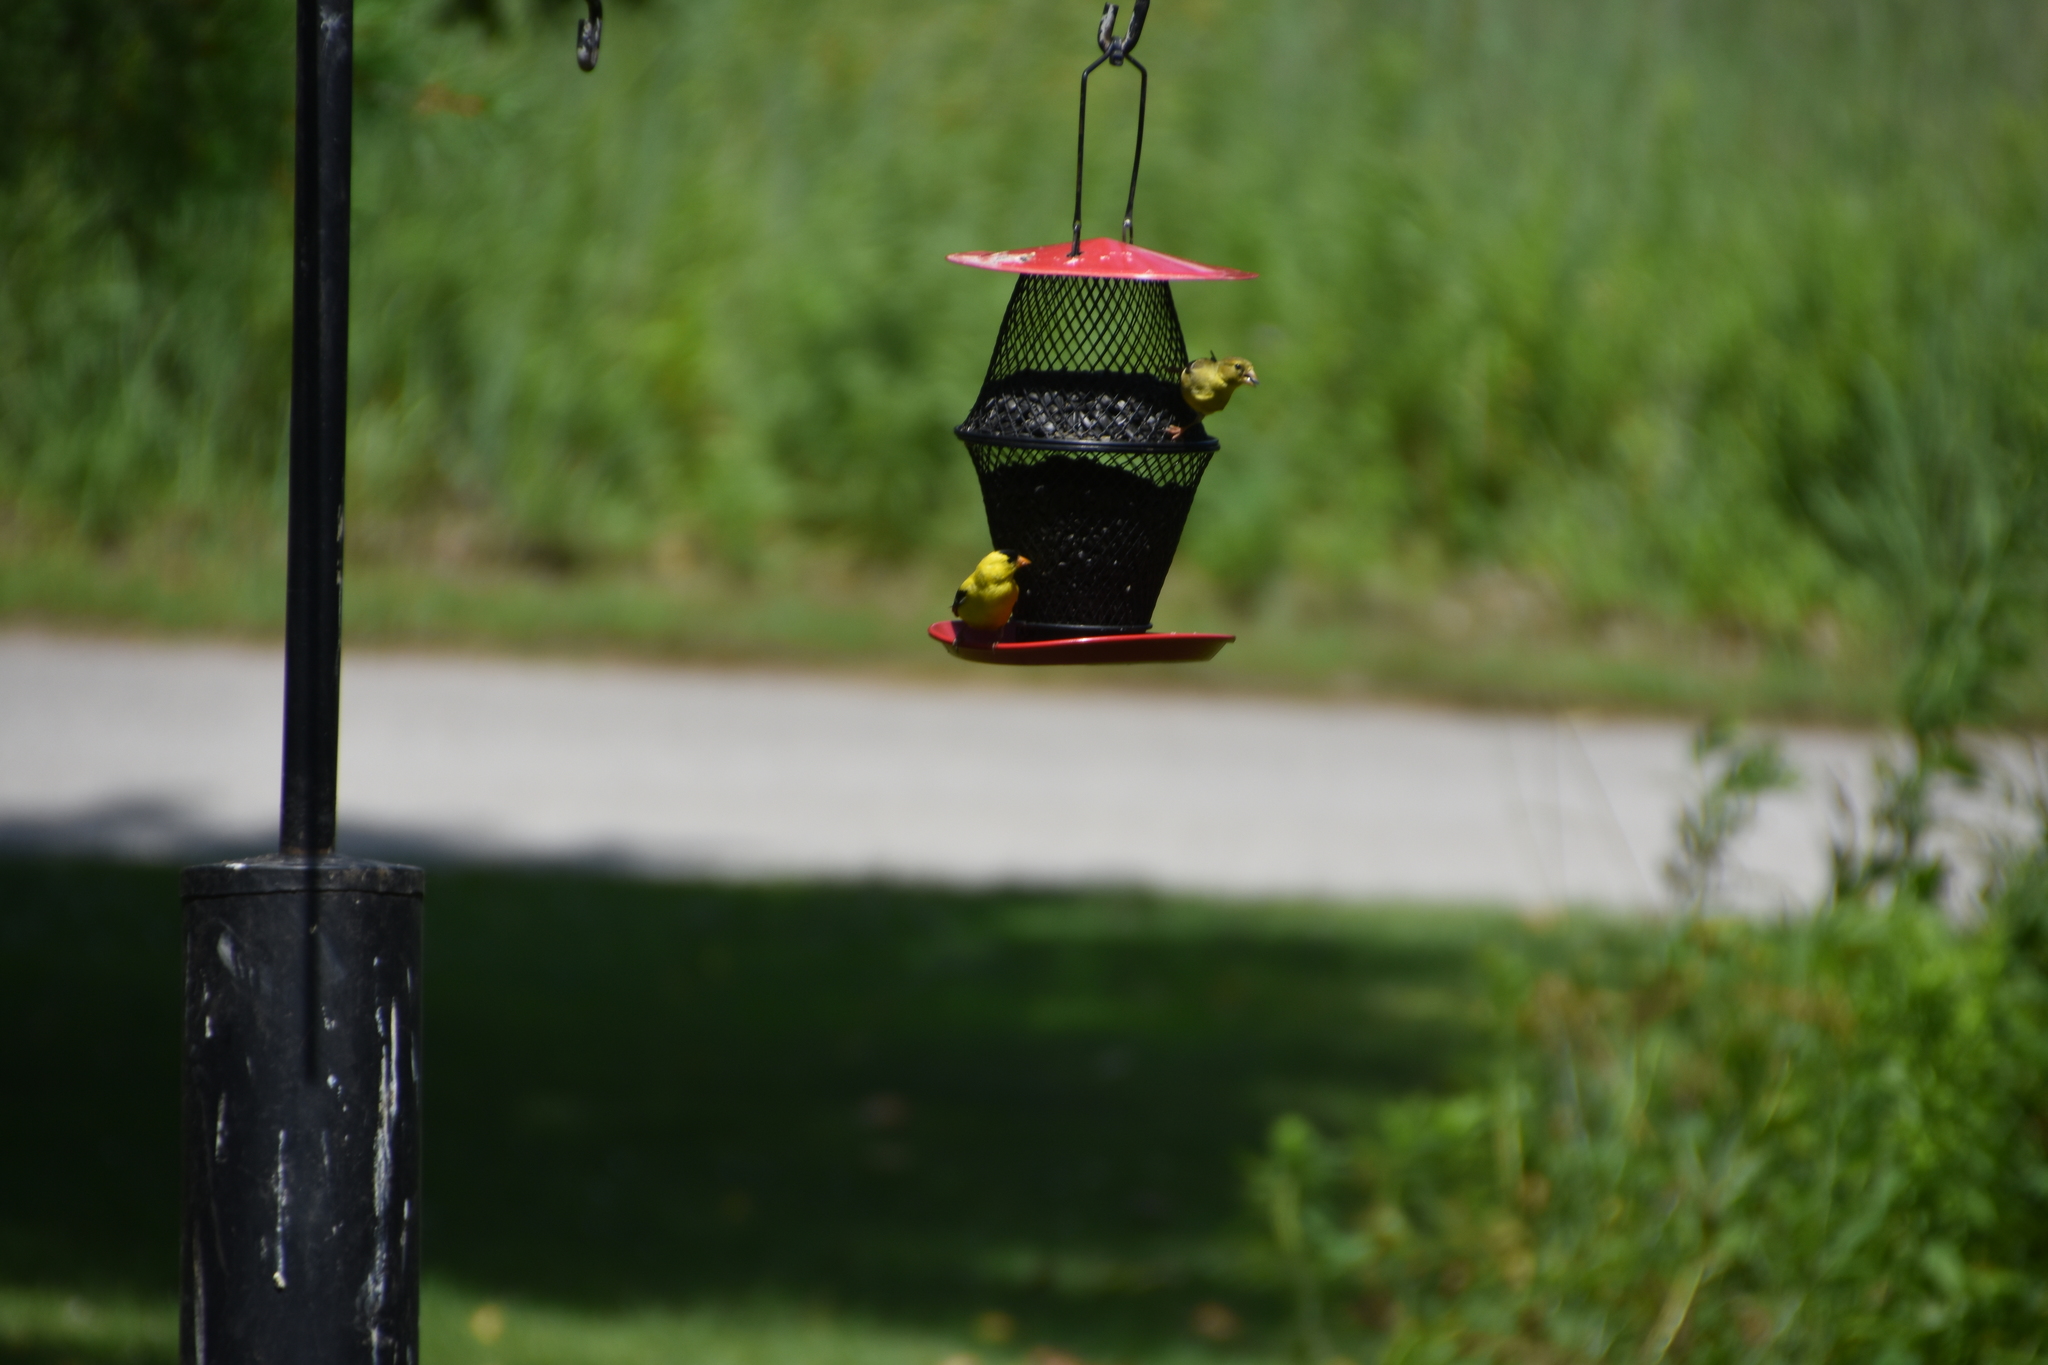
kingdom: Animalia
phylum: Chordata
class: Aves
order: Passeriformes
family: Fringillidae
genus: Spinus
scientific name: Spinus tristis
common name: American goldfinch
